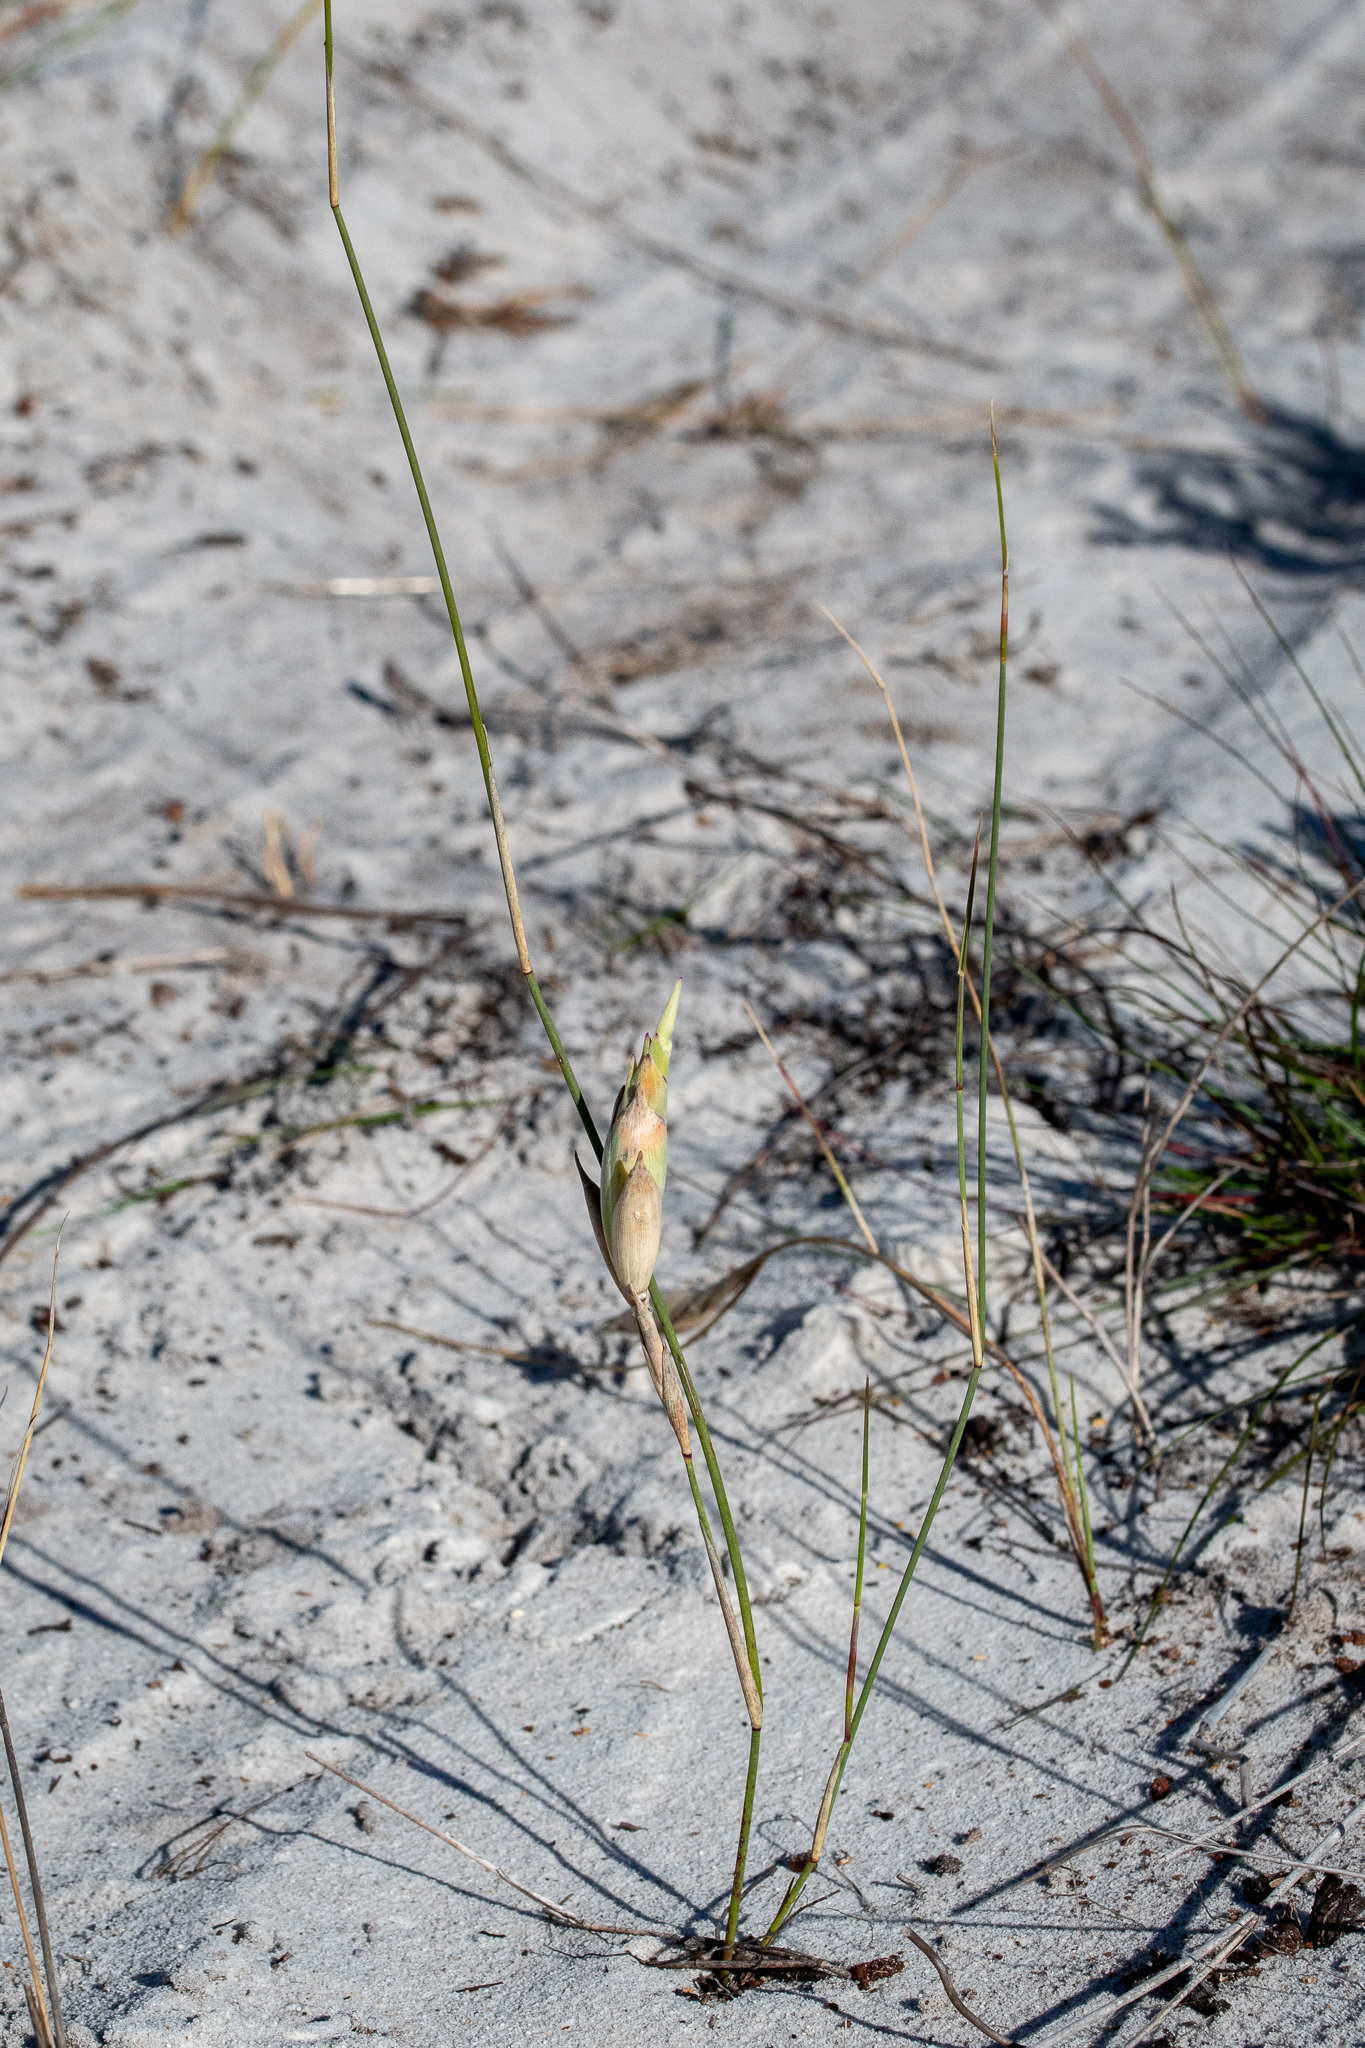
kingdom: Plantae
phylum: Tracheophyta
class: Liliopsida
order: Poales
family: Poaceae
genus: Thinopyrum
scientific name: Thinopyrum distichum
